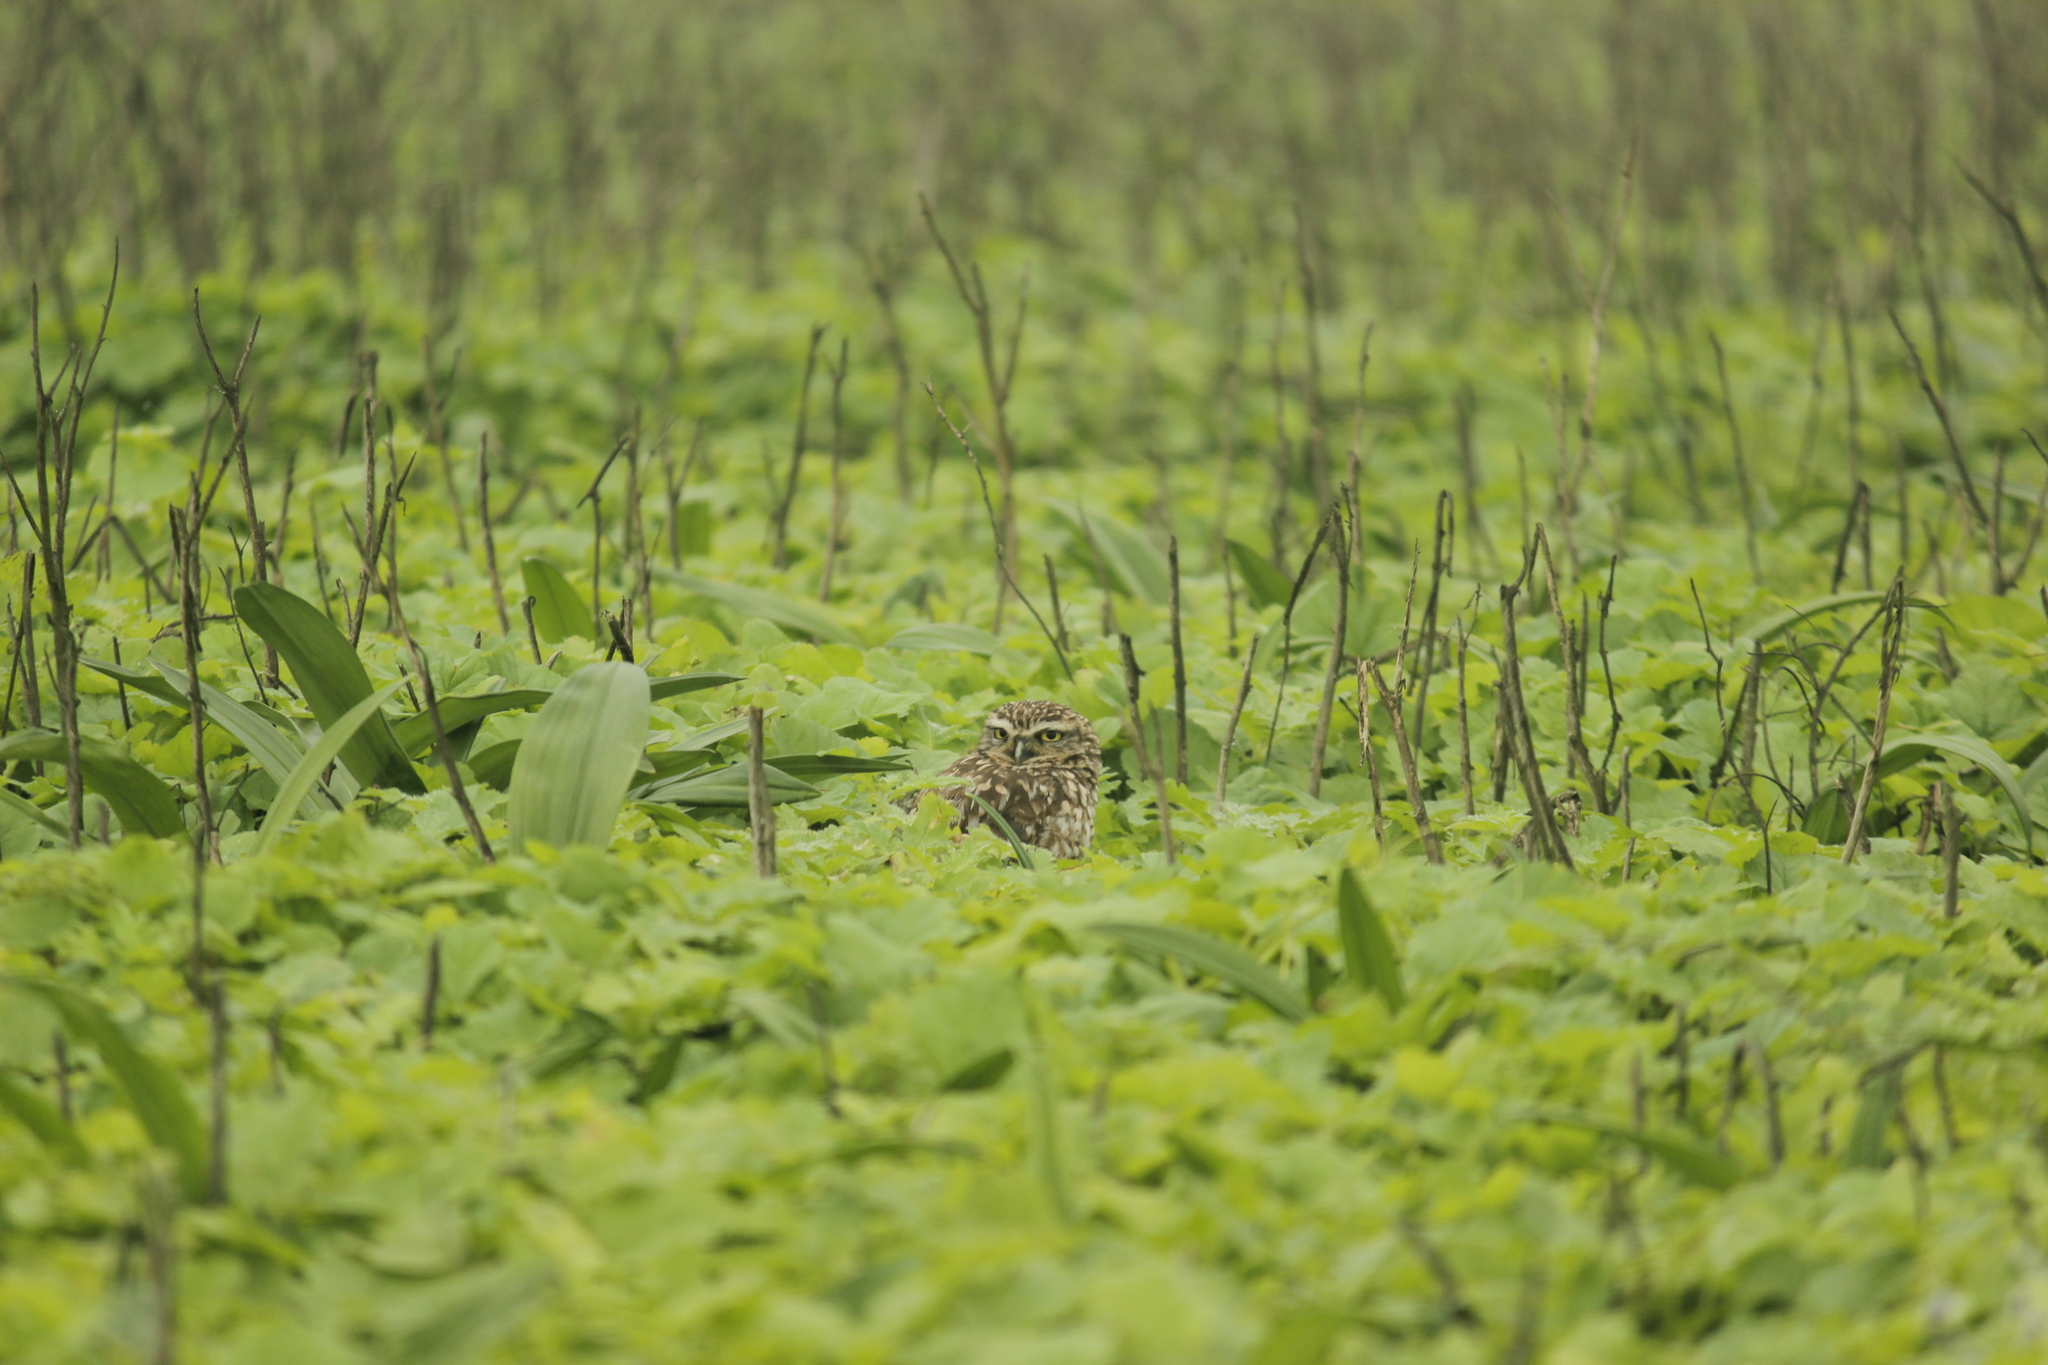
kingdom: Animalia
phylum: Chordata
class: Aves
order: Strigiformes
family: Strigidae
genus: Athene
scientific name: Athene cunicularia
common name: Burrowing owl
